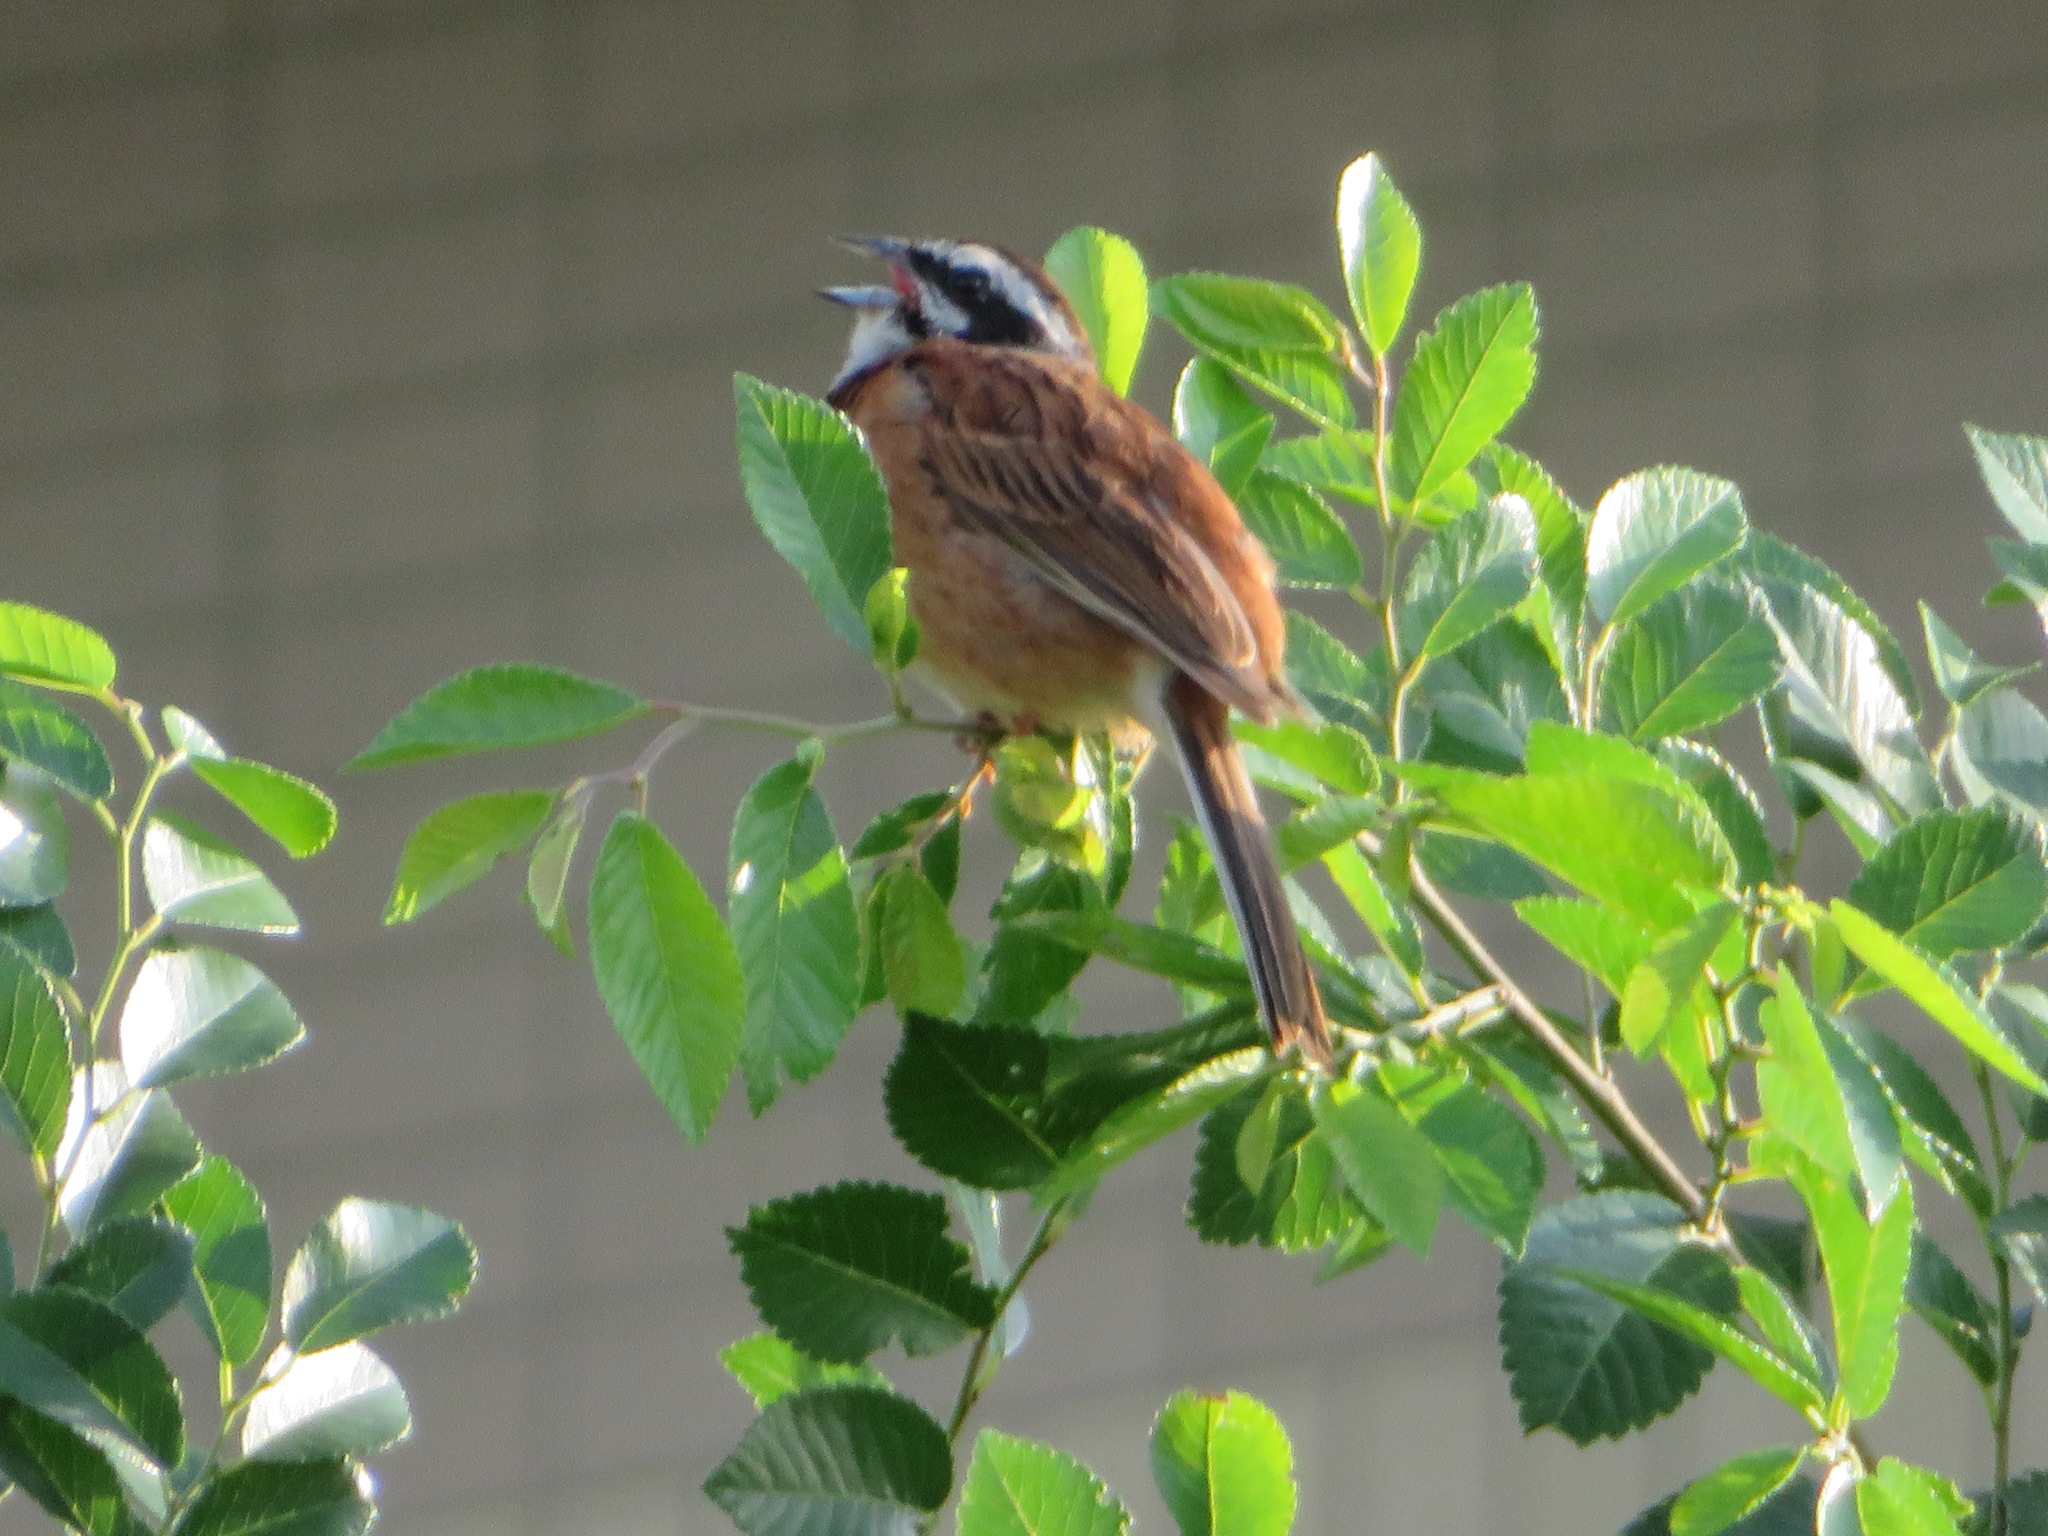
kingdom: Animalia
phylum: Chordata
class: Aves
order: Passeriformes
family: Emberizidae
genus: Emberiza
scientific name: Emberiza cioides
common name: Meadow bunting
